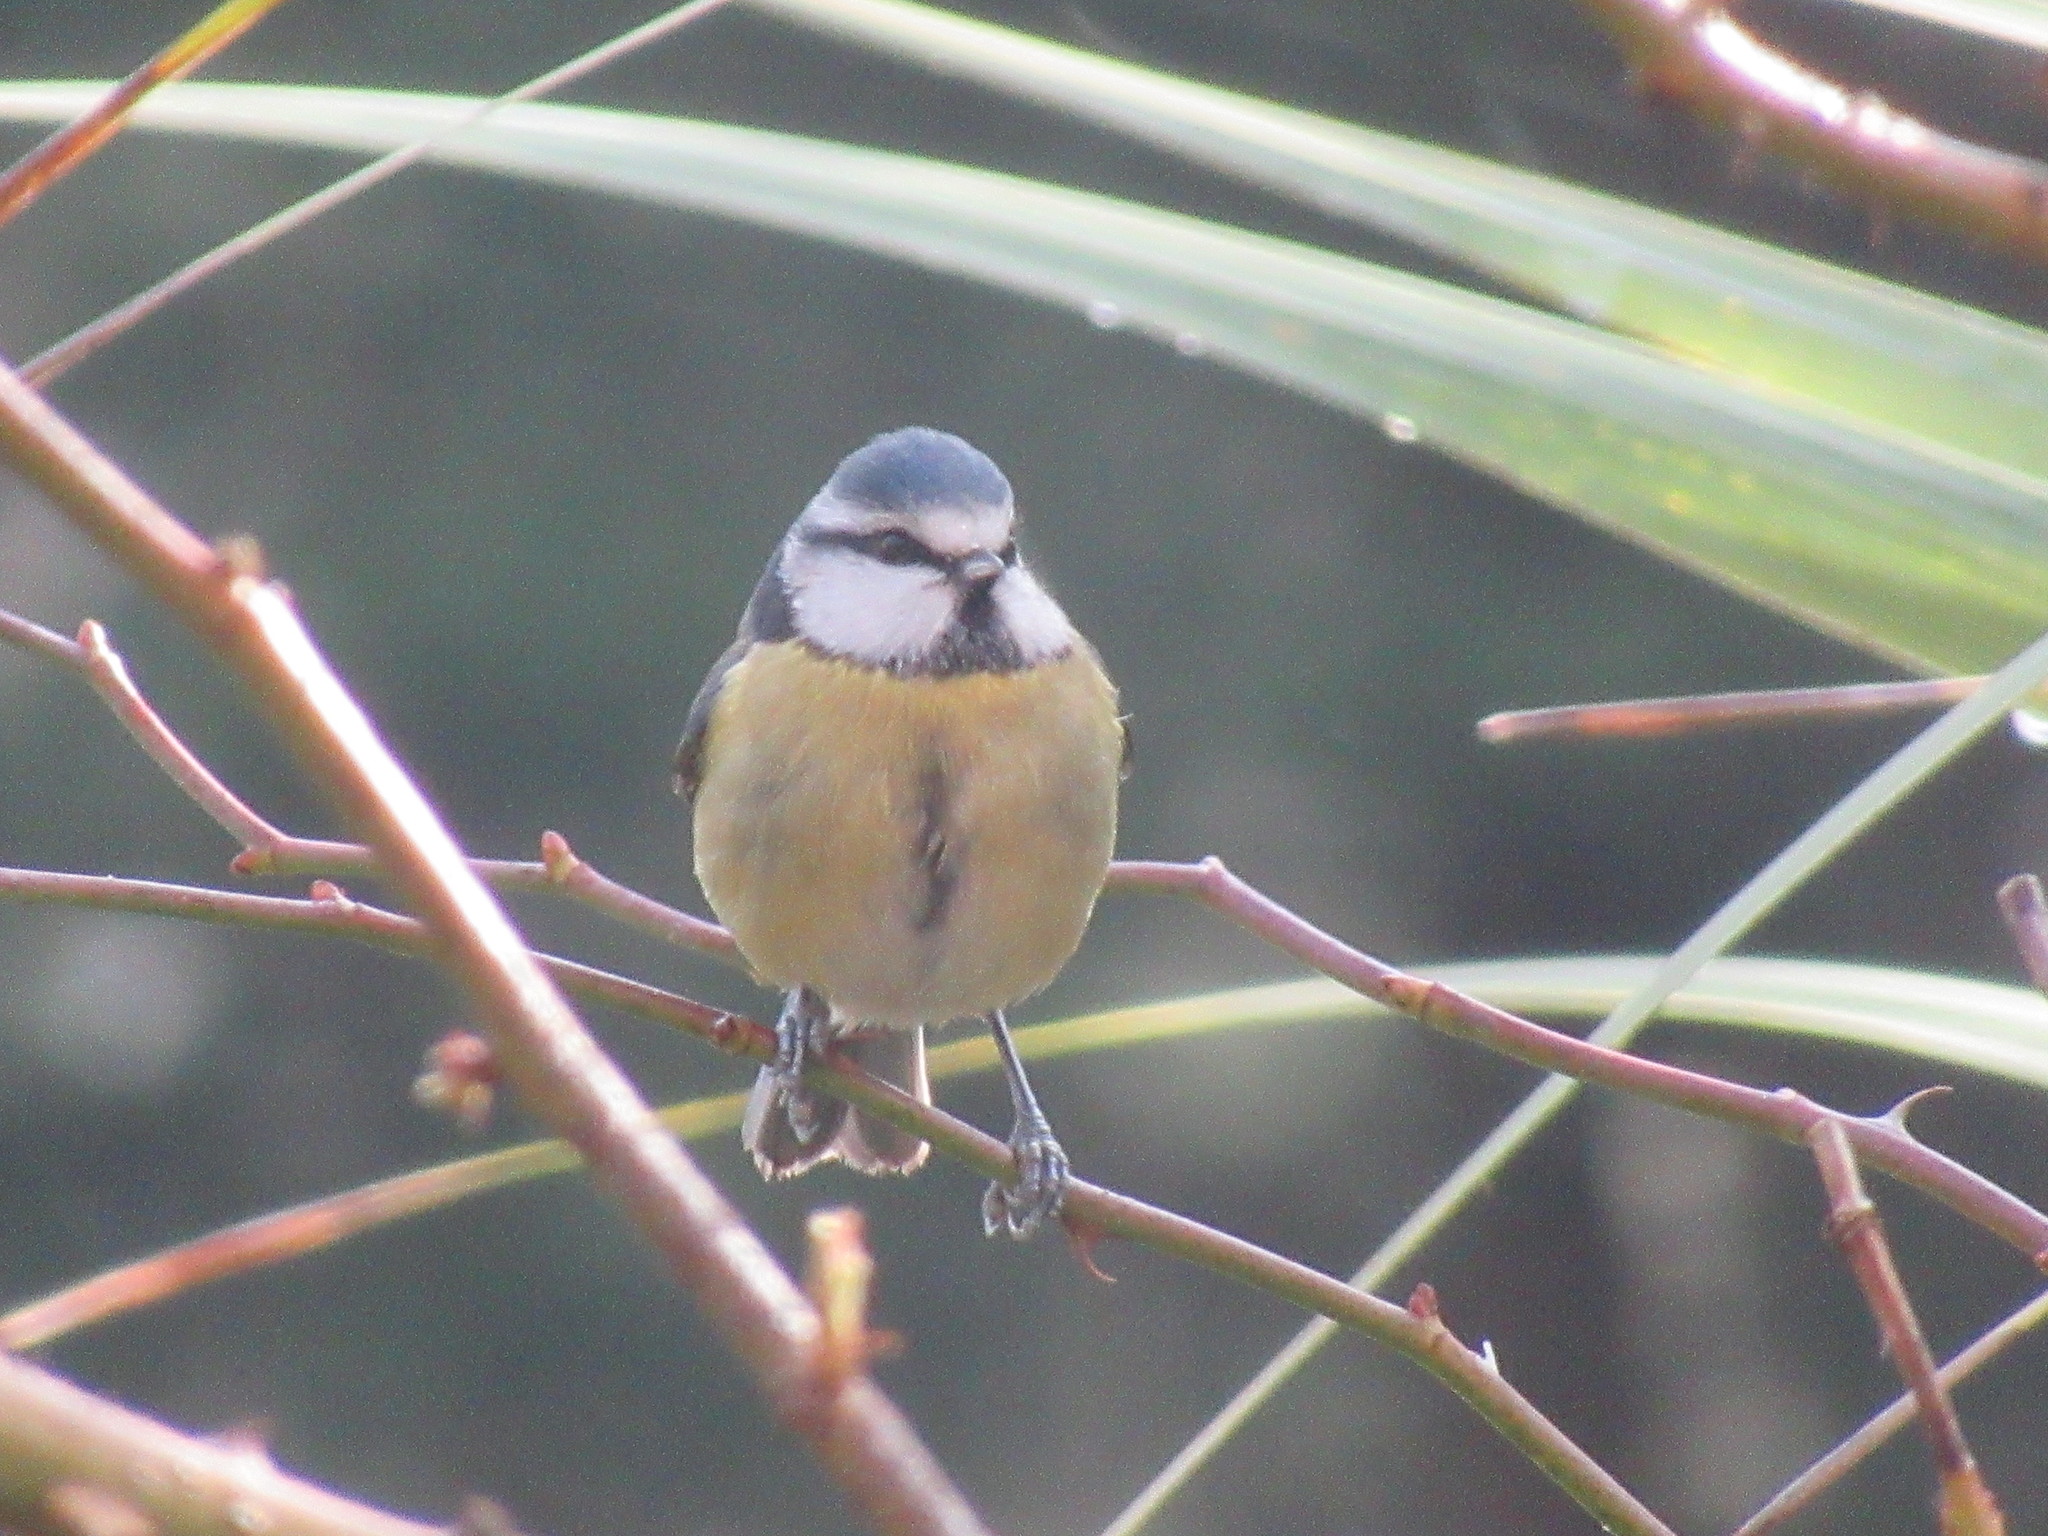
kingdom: Animalia
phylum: Chordata
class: Aves
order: Passeriformes
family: Paridae
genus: Cyanistes
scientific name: Cyanistes caeruleus
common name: Eurasian blue tit
